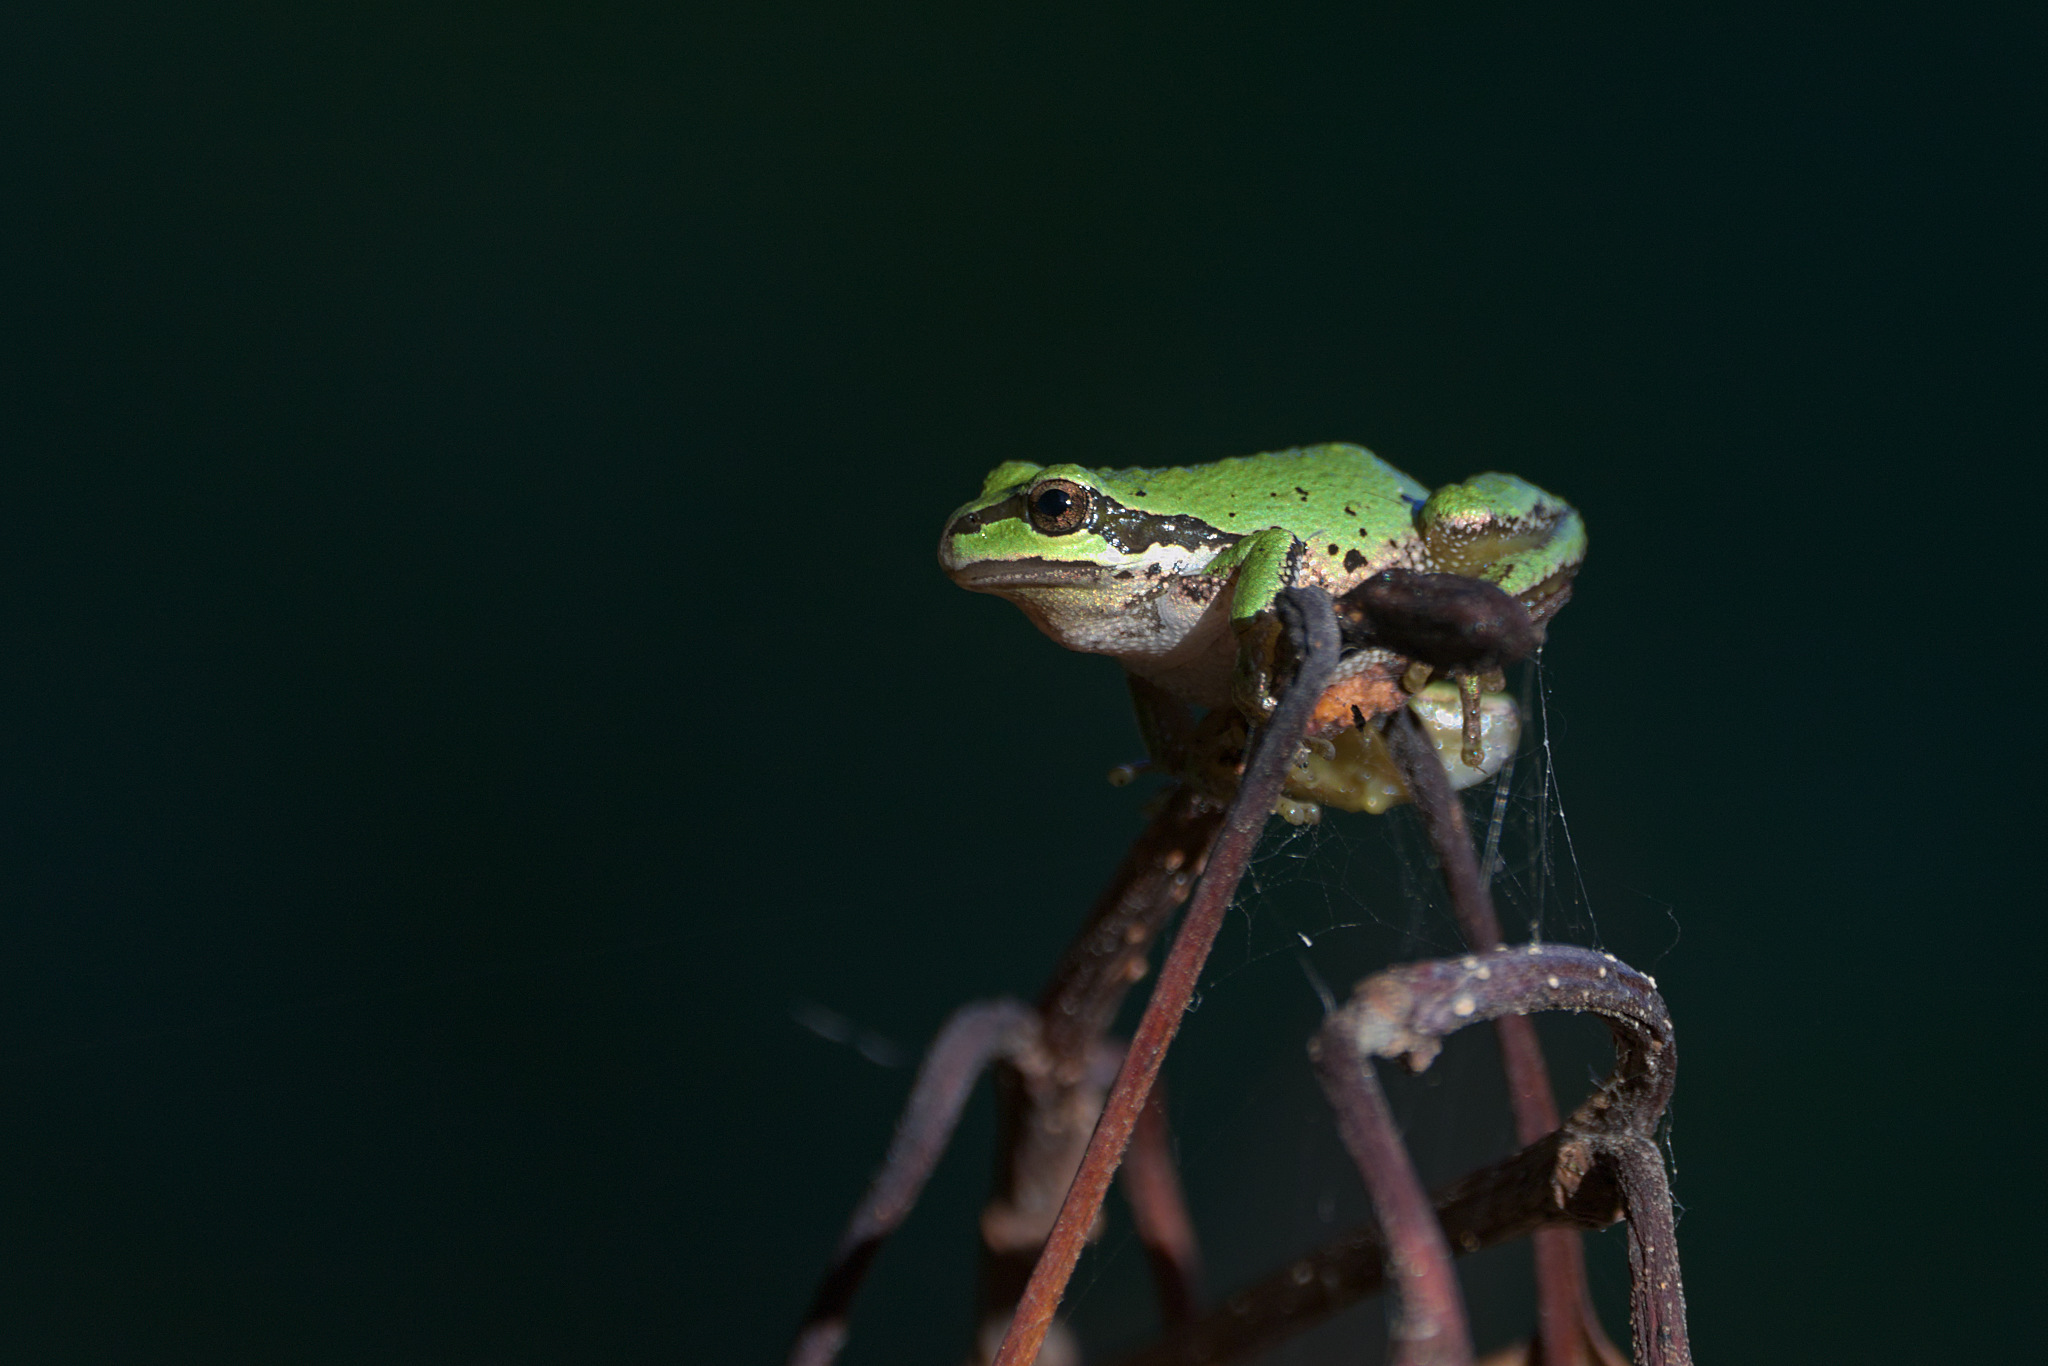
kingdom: Animalia
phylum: Chordata
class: Amphibia
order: Anura
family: Hylidae
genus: Pseudacris
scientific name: Pseudacris regilla
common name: Pacific chorus frog
